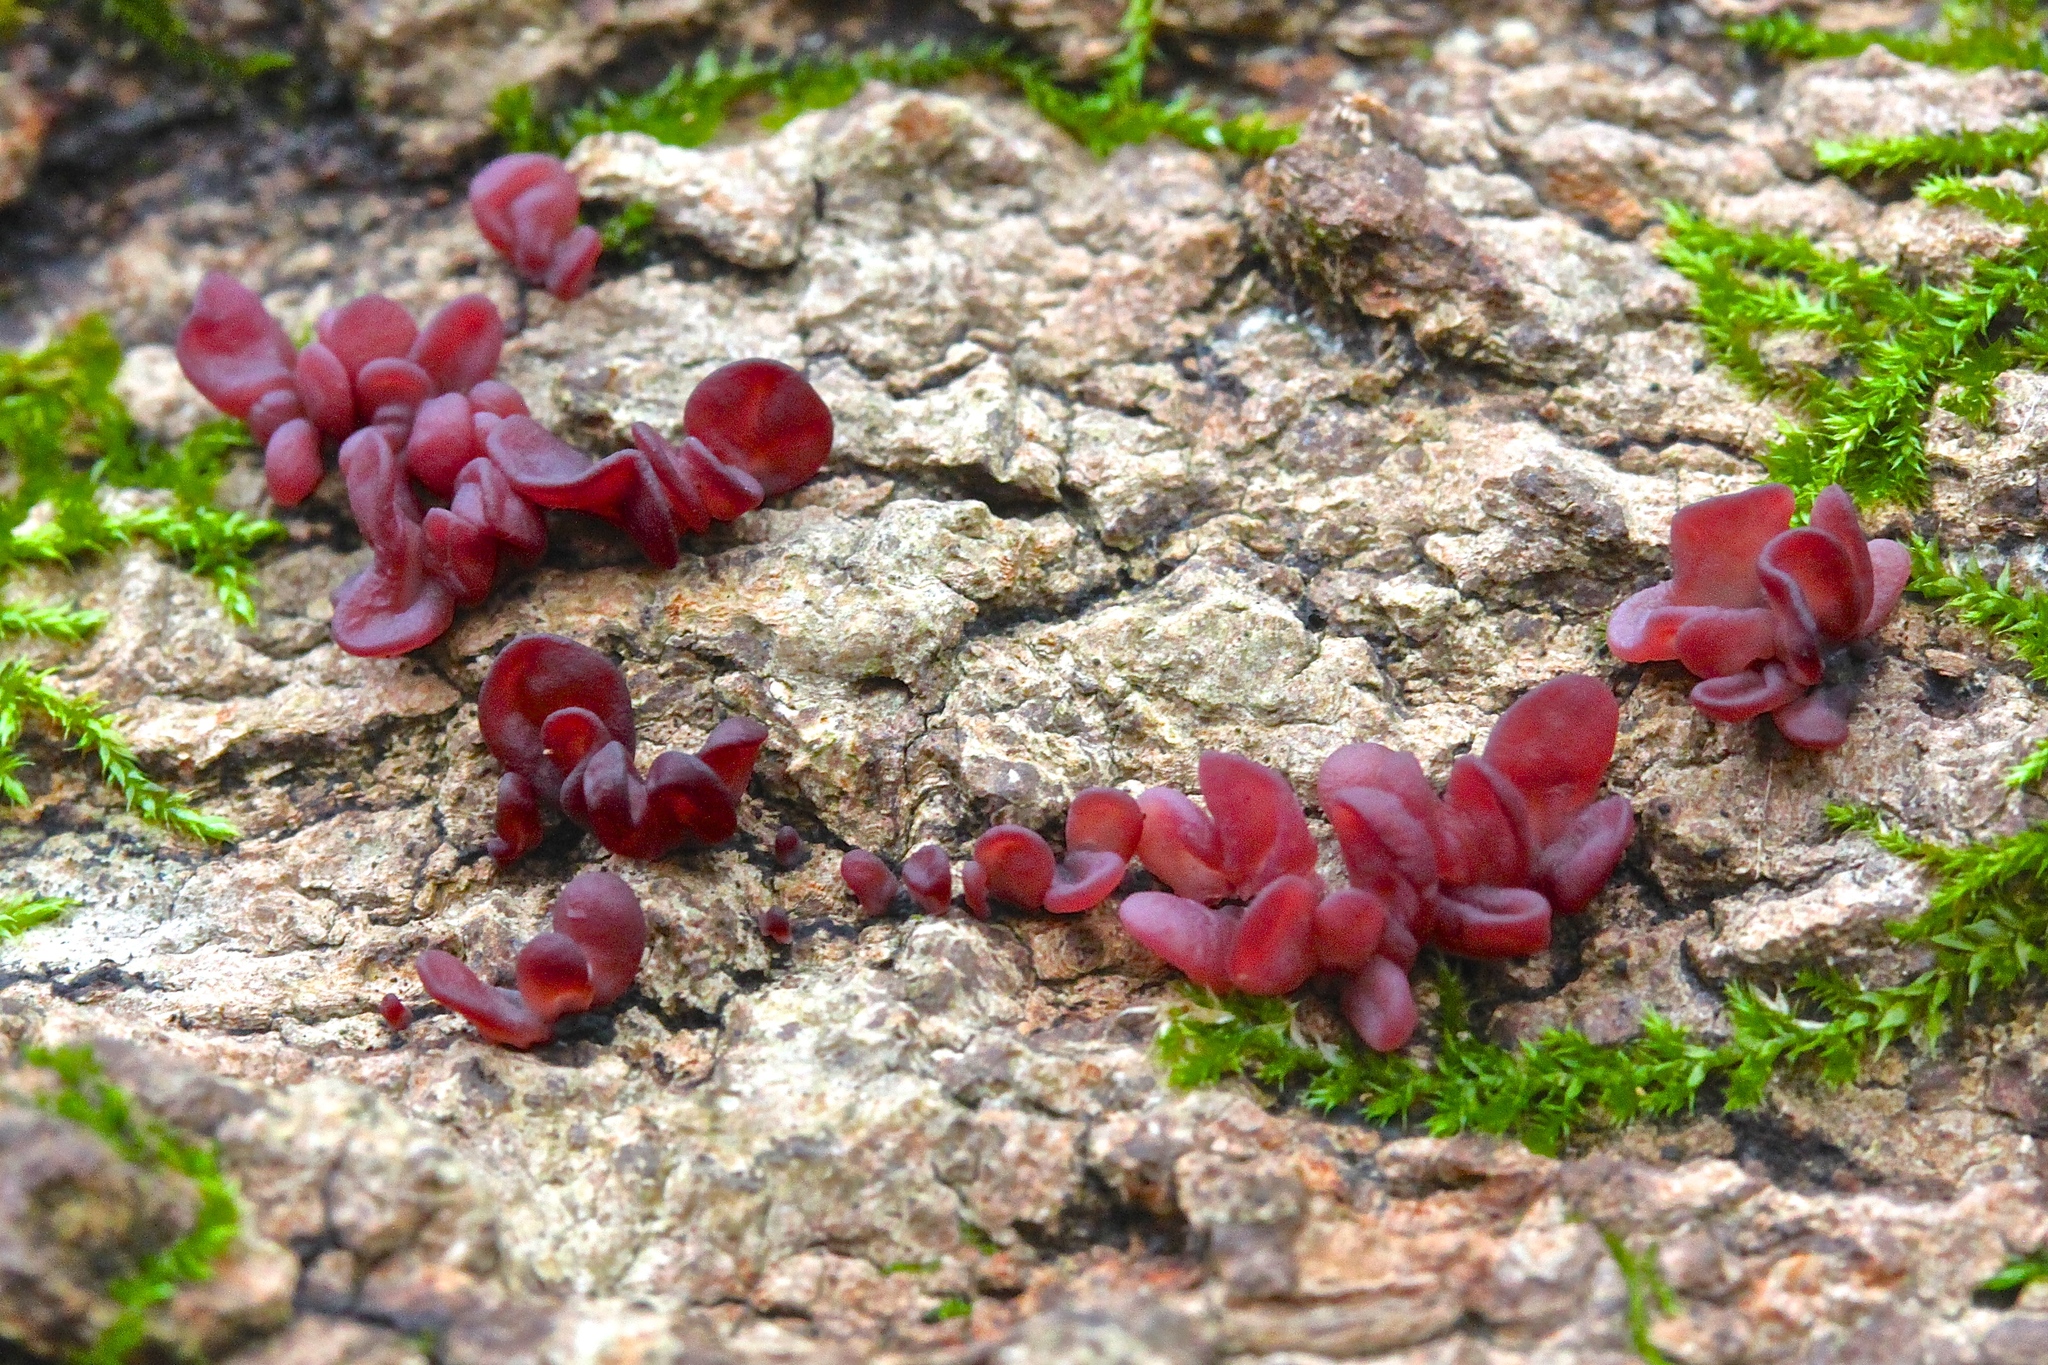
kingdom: Fungi
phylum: Ascomycota
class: Leotiomycetes
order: Helotiales
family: Gelatinodiscaceae
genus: Ascocoryne
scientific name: Ascocoryne sarcoides
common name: Purple jellydisc
